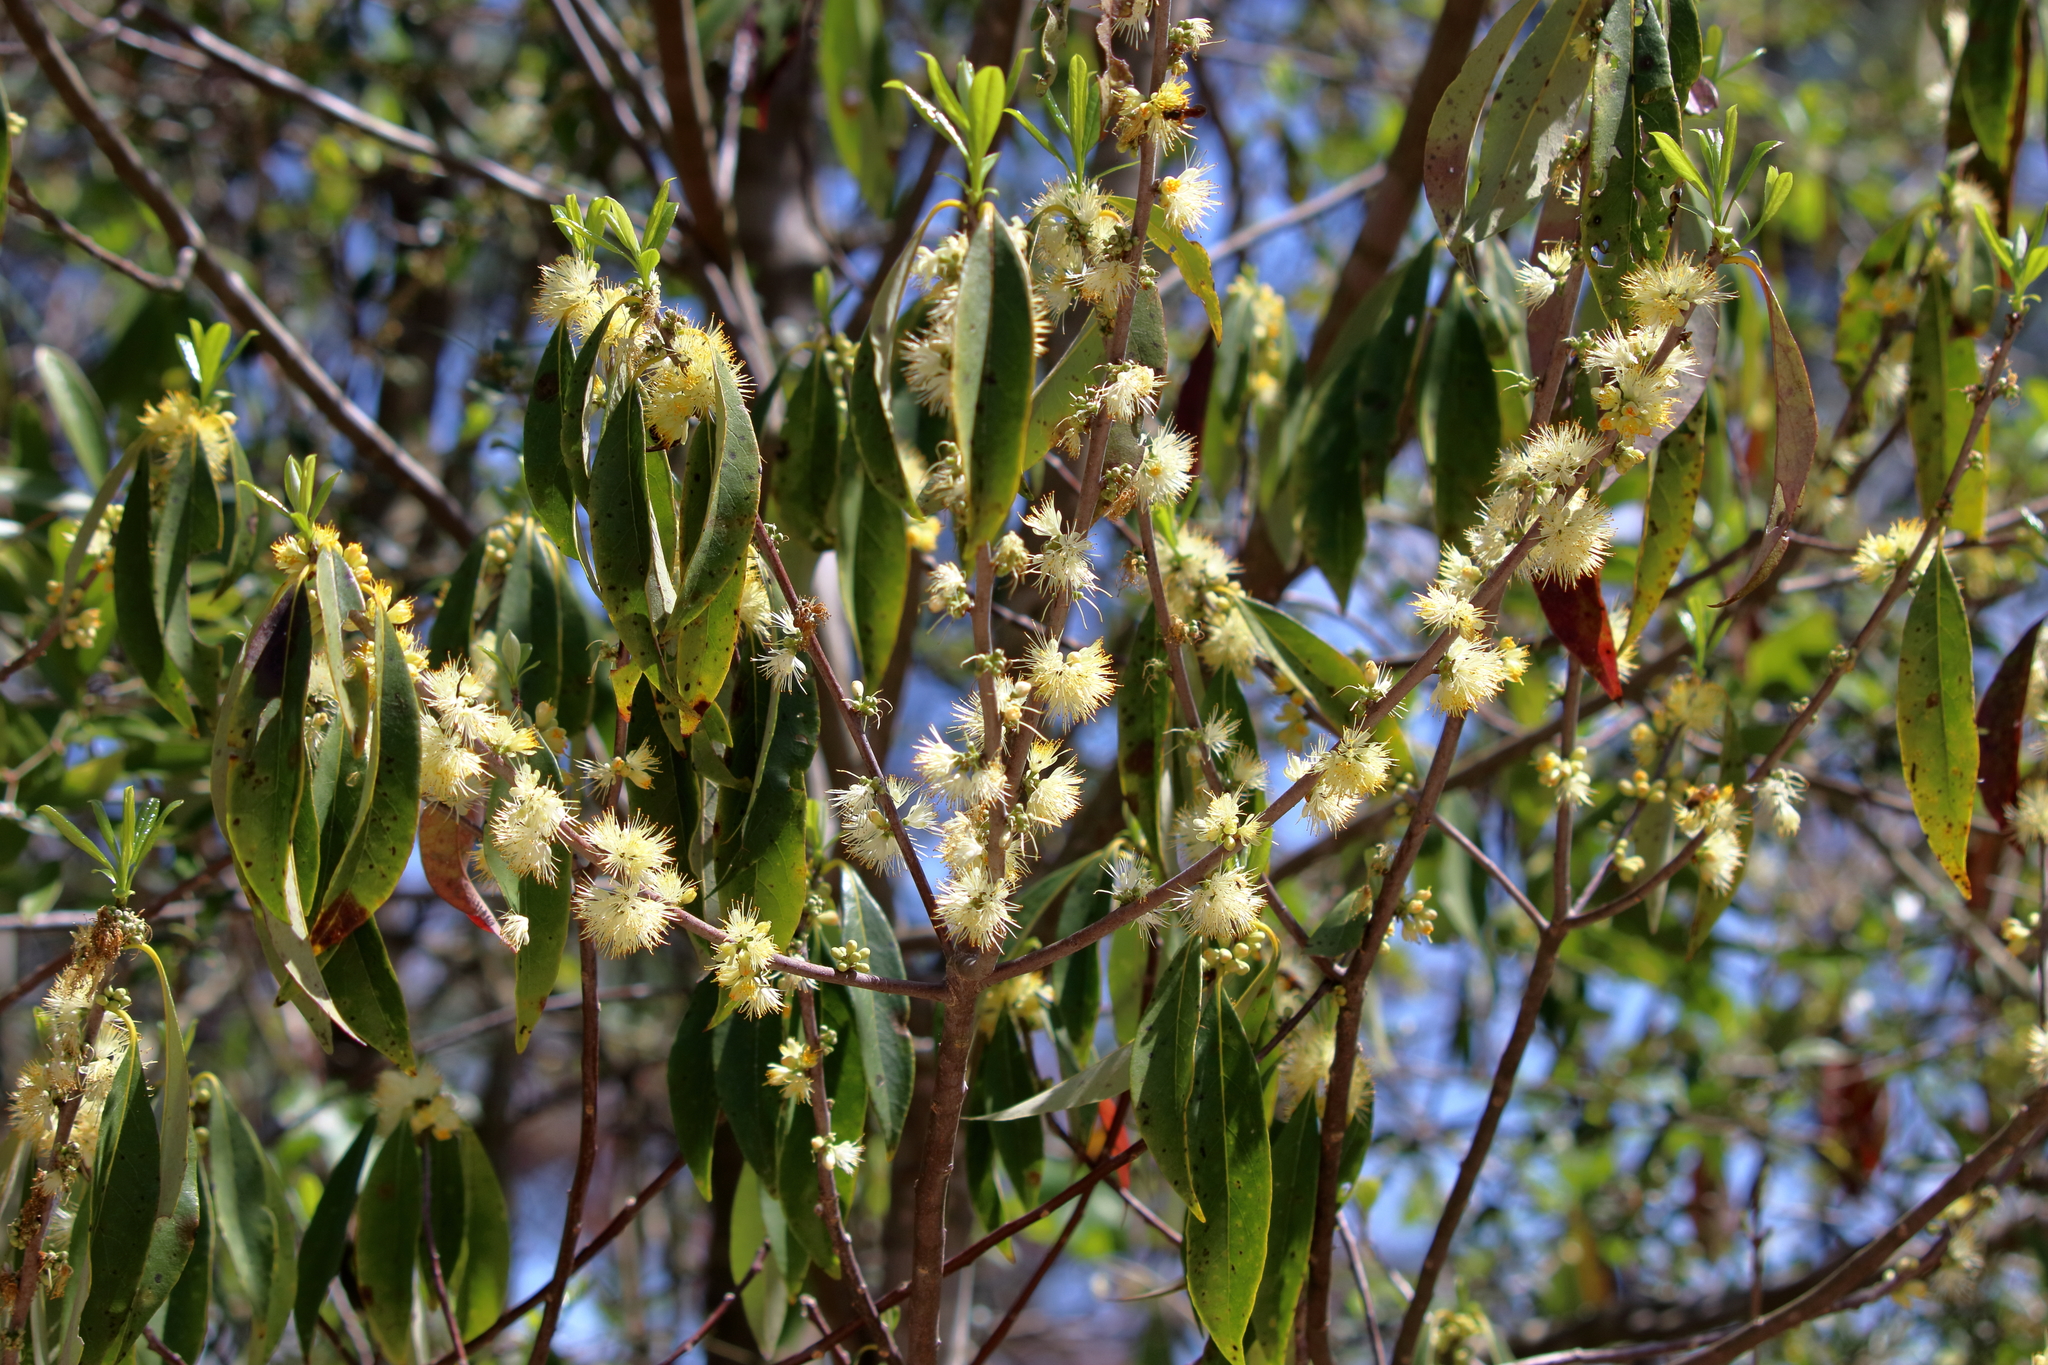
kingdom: Plantae
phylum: Tracheophyta
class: Magnoliopsida
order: Ericales
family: Symplocaceae
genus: Symplocos
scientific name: Symplocos tinctoria
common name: Horse-sugar
